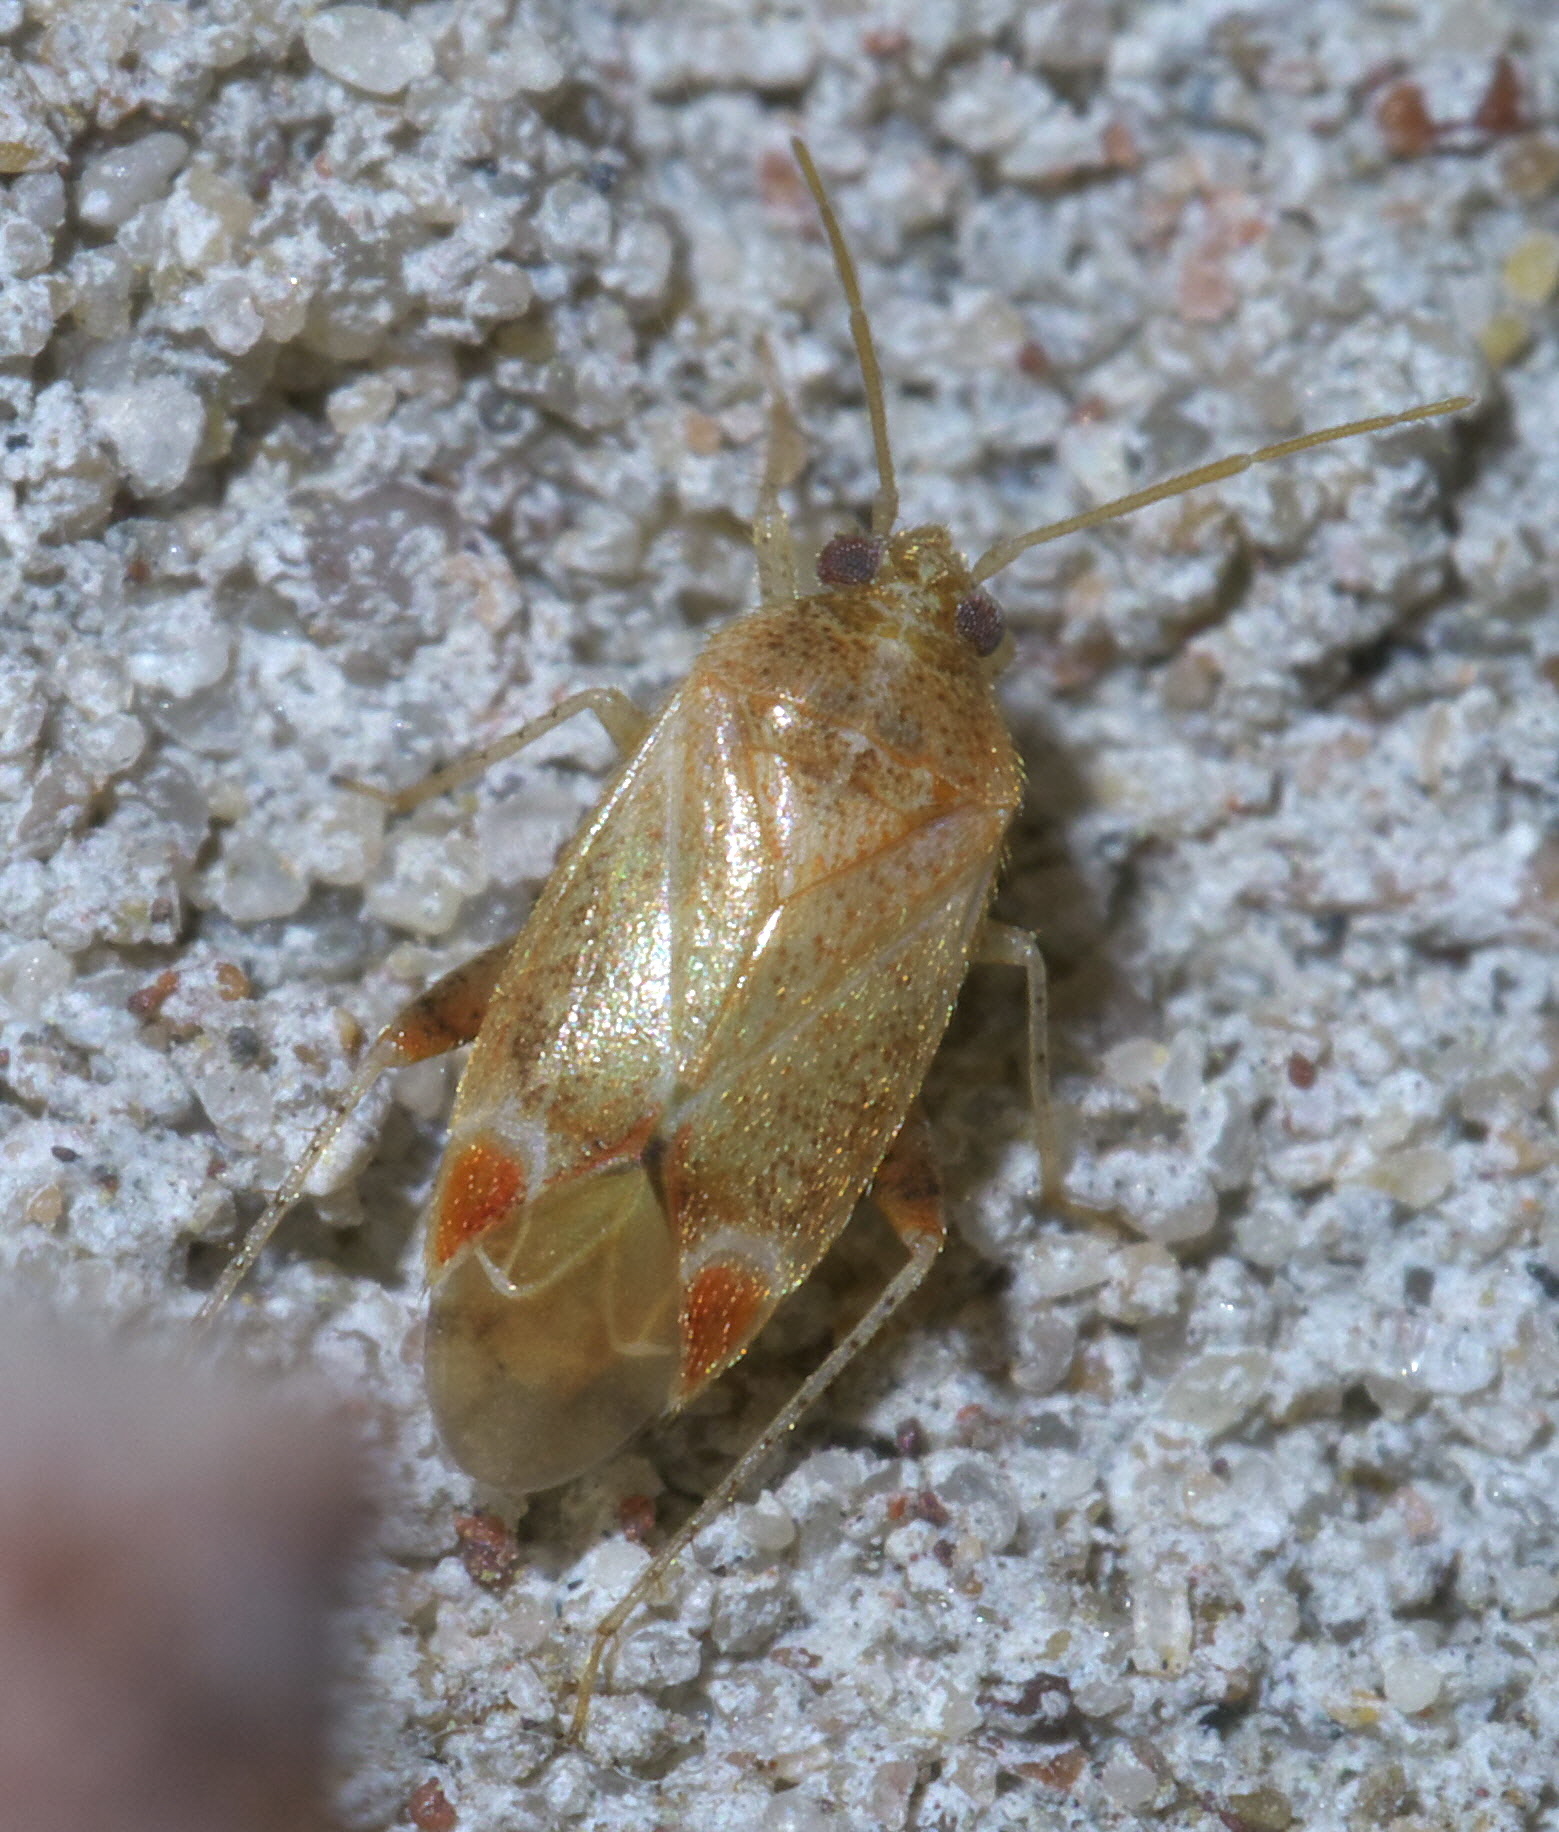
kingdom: Animalia
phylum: Arthropoda
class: Insecta
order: Hemiptera
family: Miridae
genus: Hamatophylus
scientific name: Hamatophylus guttulosus
